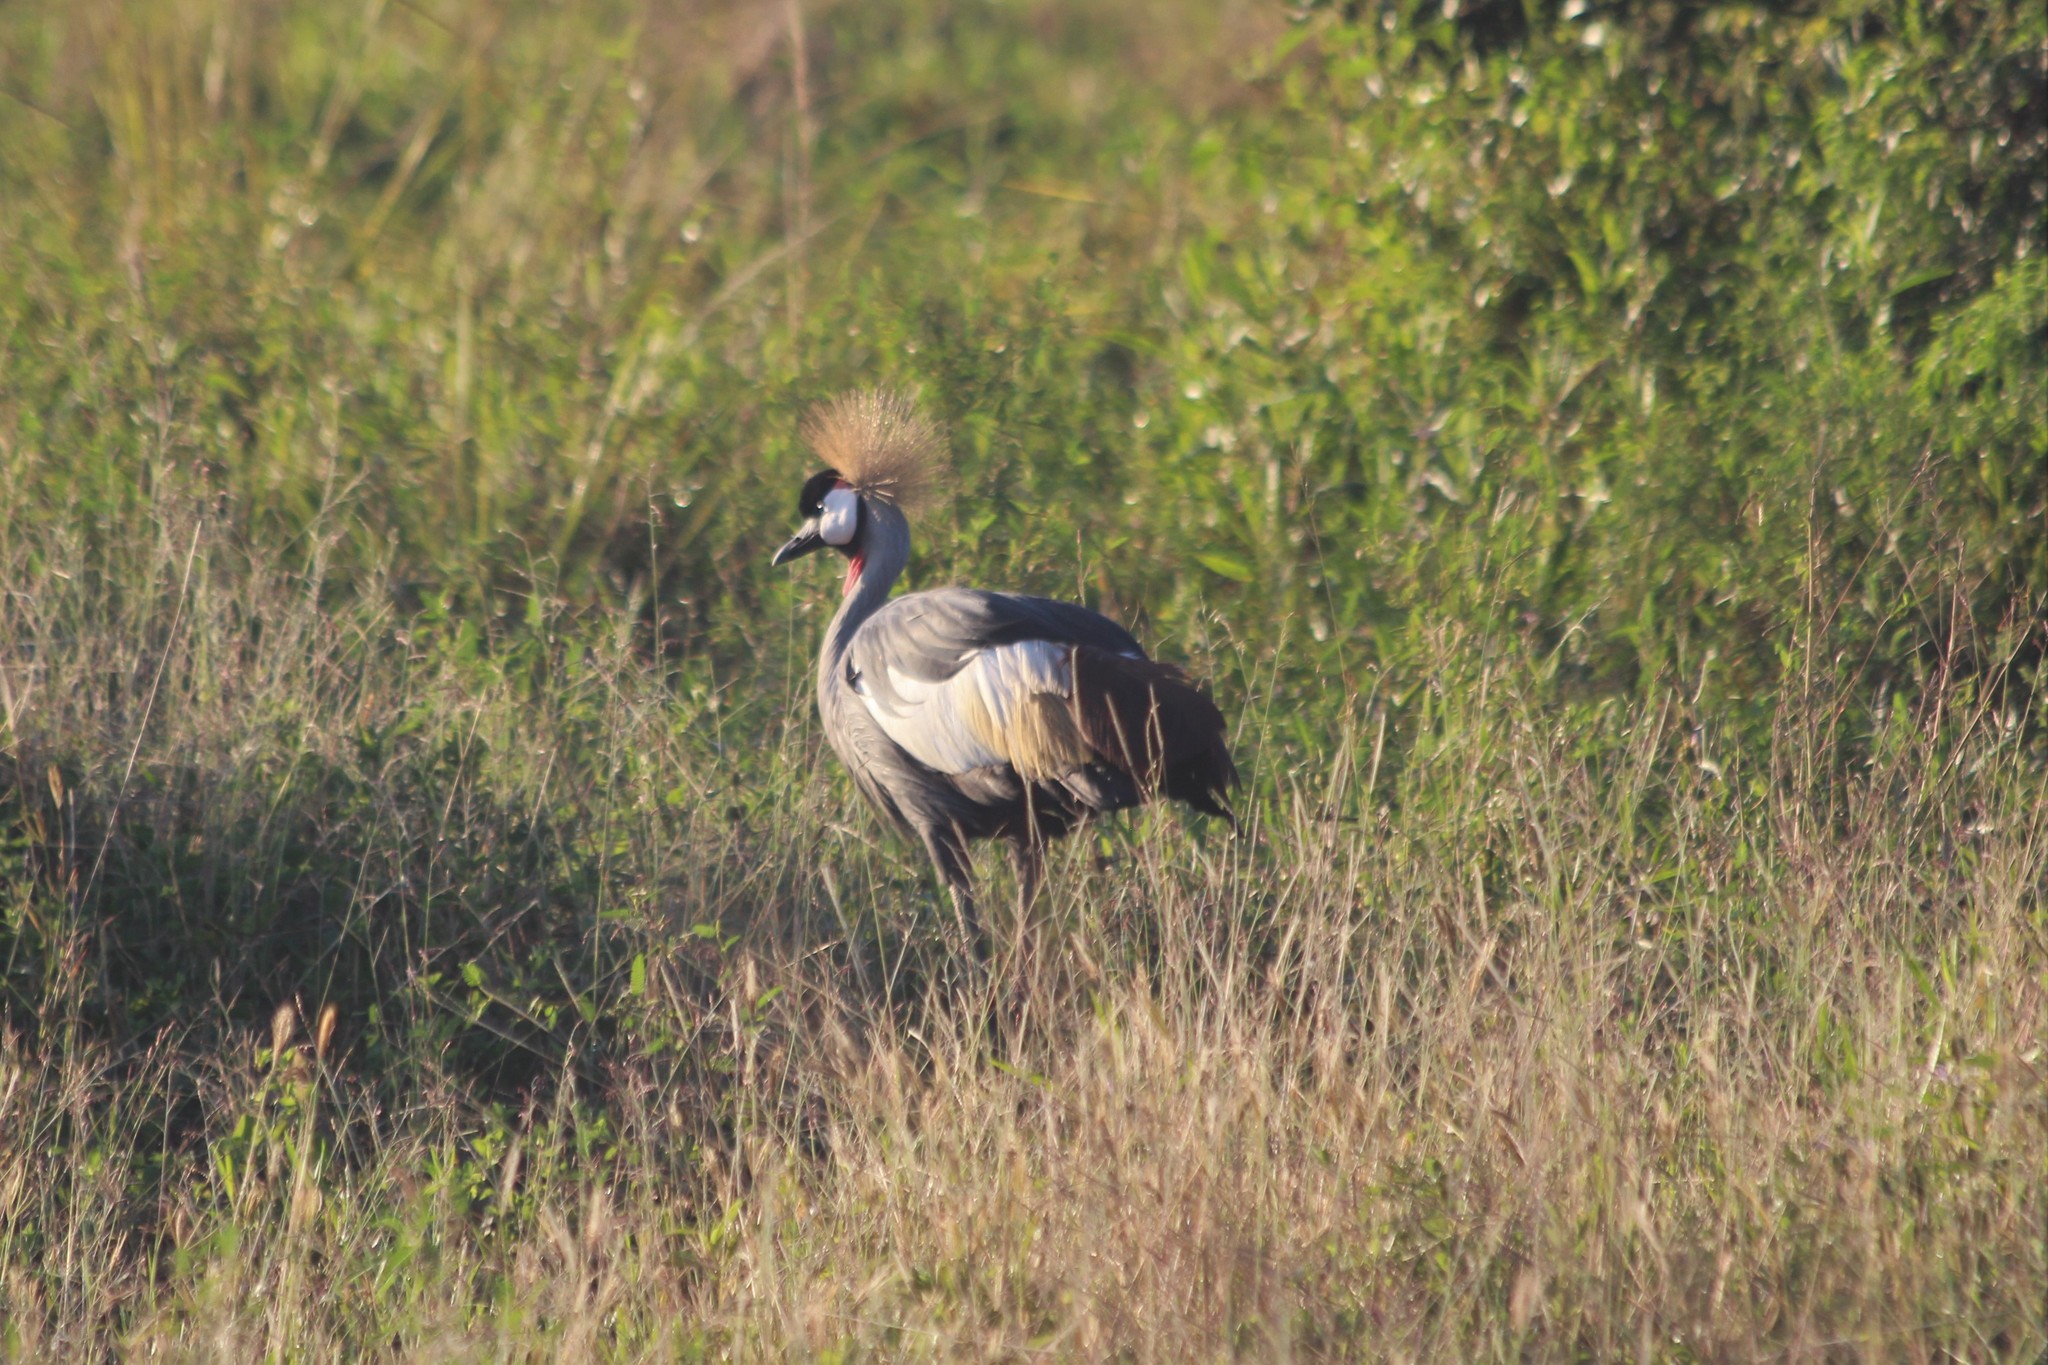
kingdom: Animalia
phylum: Chordata
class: Aves
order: Gruiformes
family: Gruidae
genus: Balearica
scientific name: Balearica regulorum
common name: Grey crowned crane
